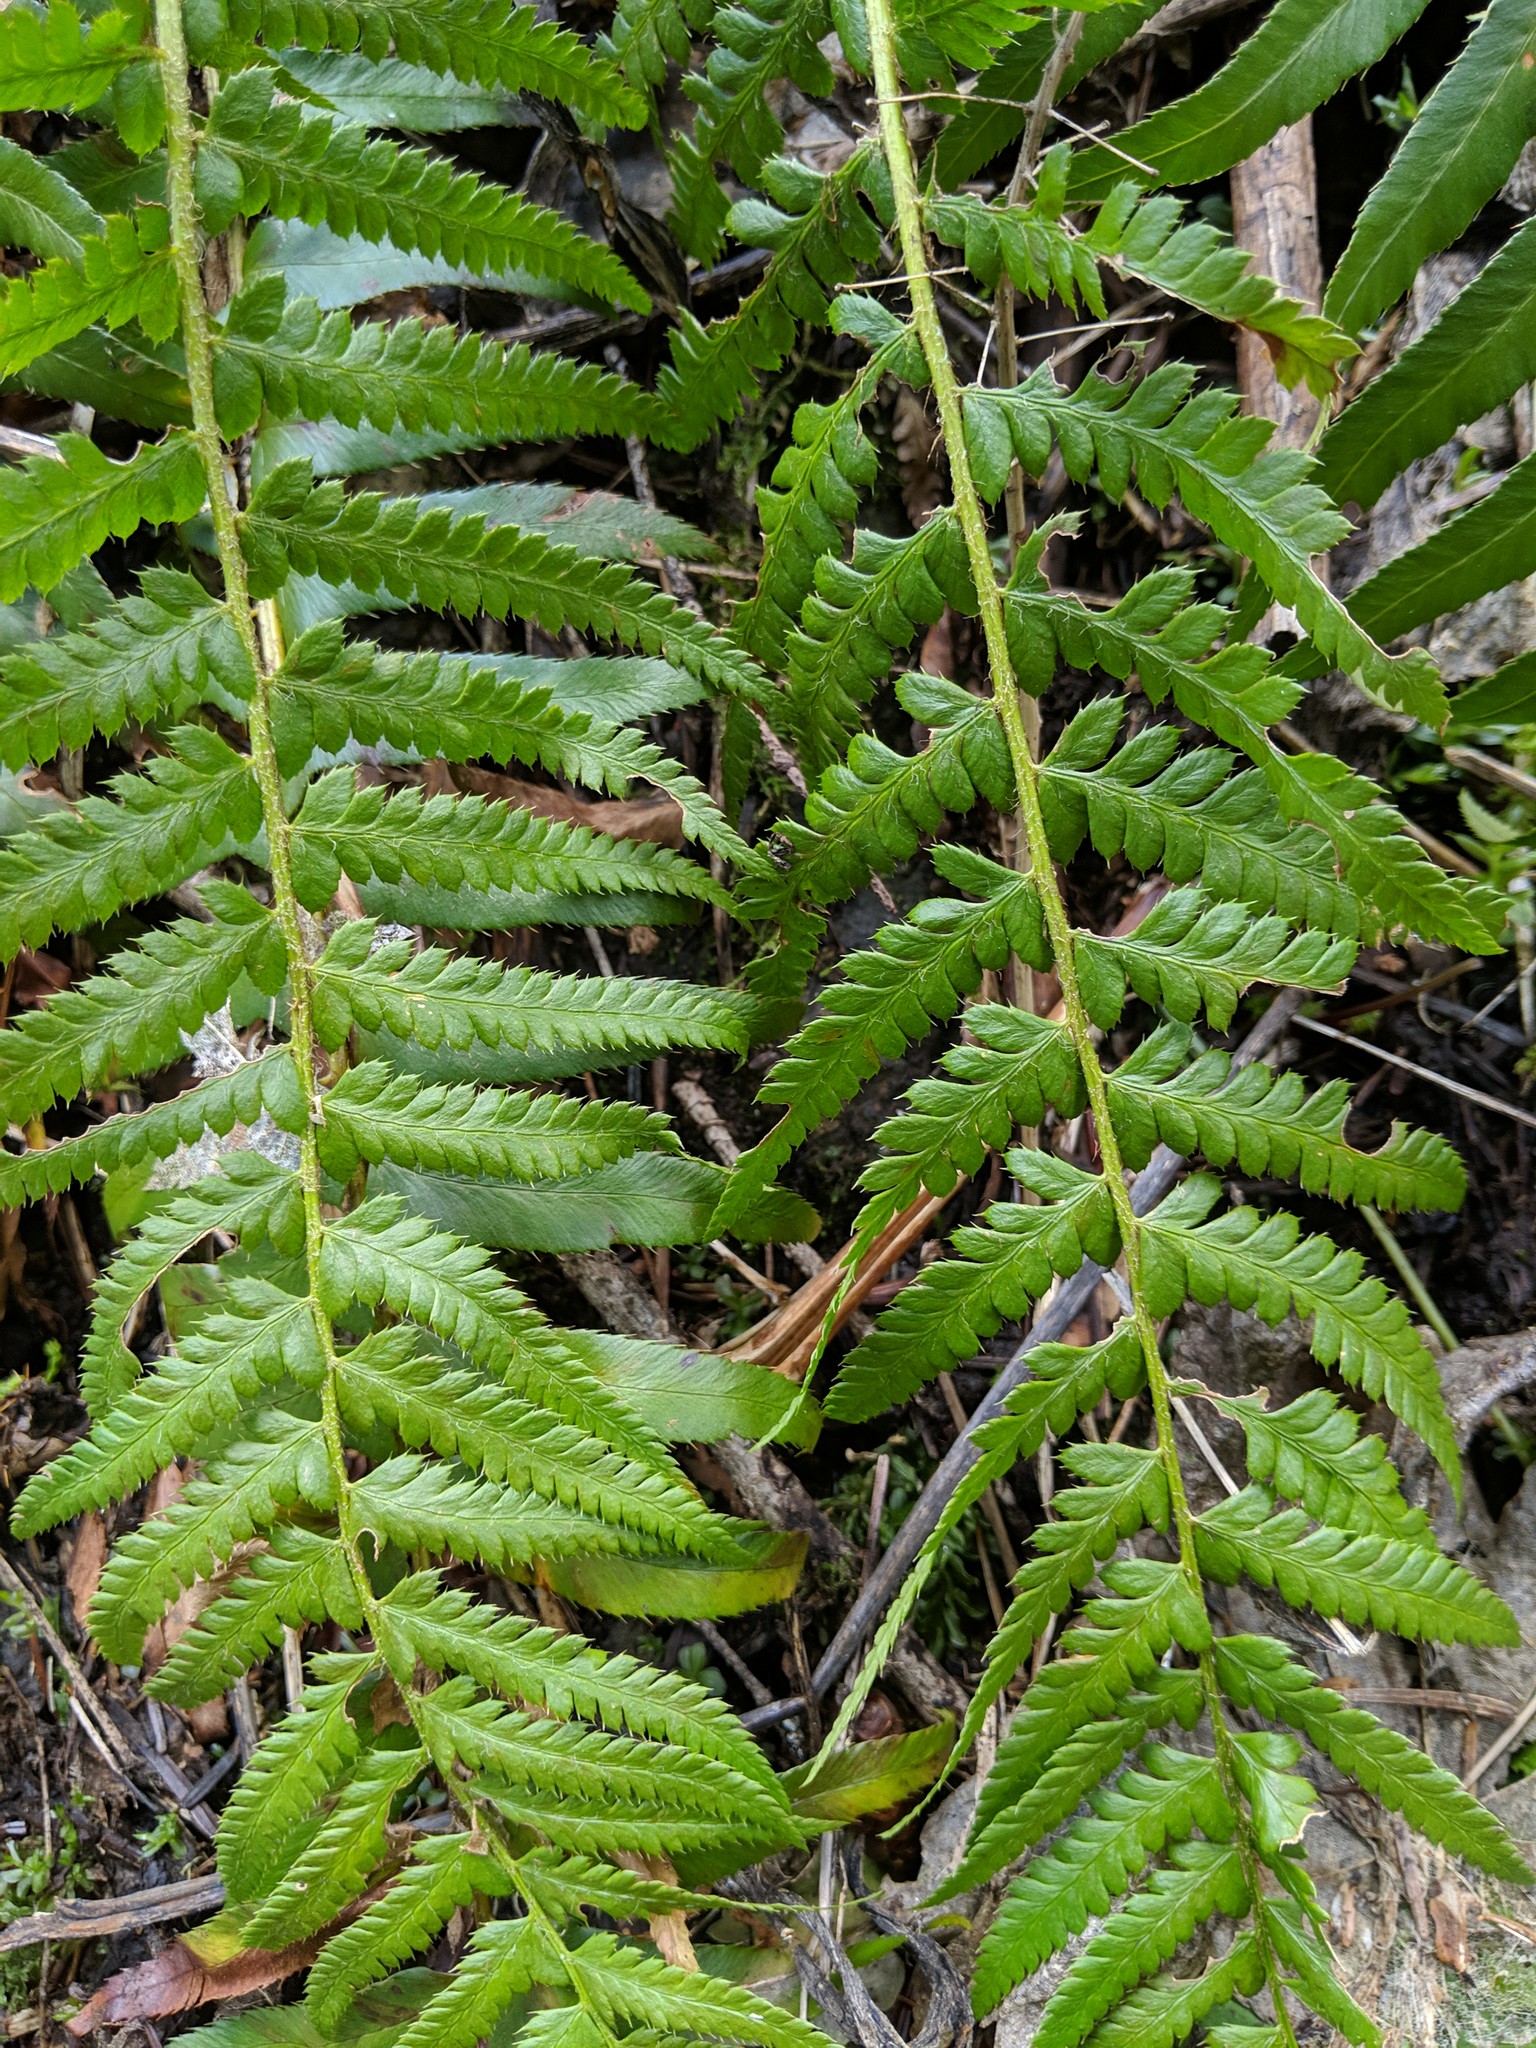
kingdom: Plantae
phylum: Tracheophyta
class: Polypodiopsida
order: Polypodiales
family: Dryopteridaceae
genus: Polystichum
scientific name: Polystichum andersonii
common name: Anderson's holly fern
